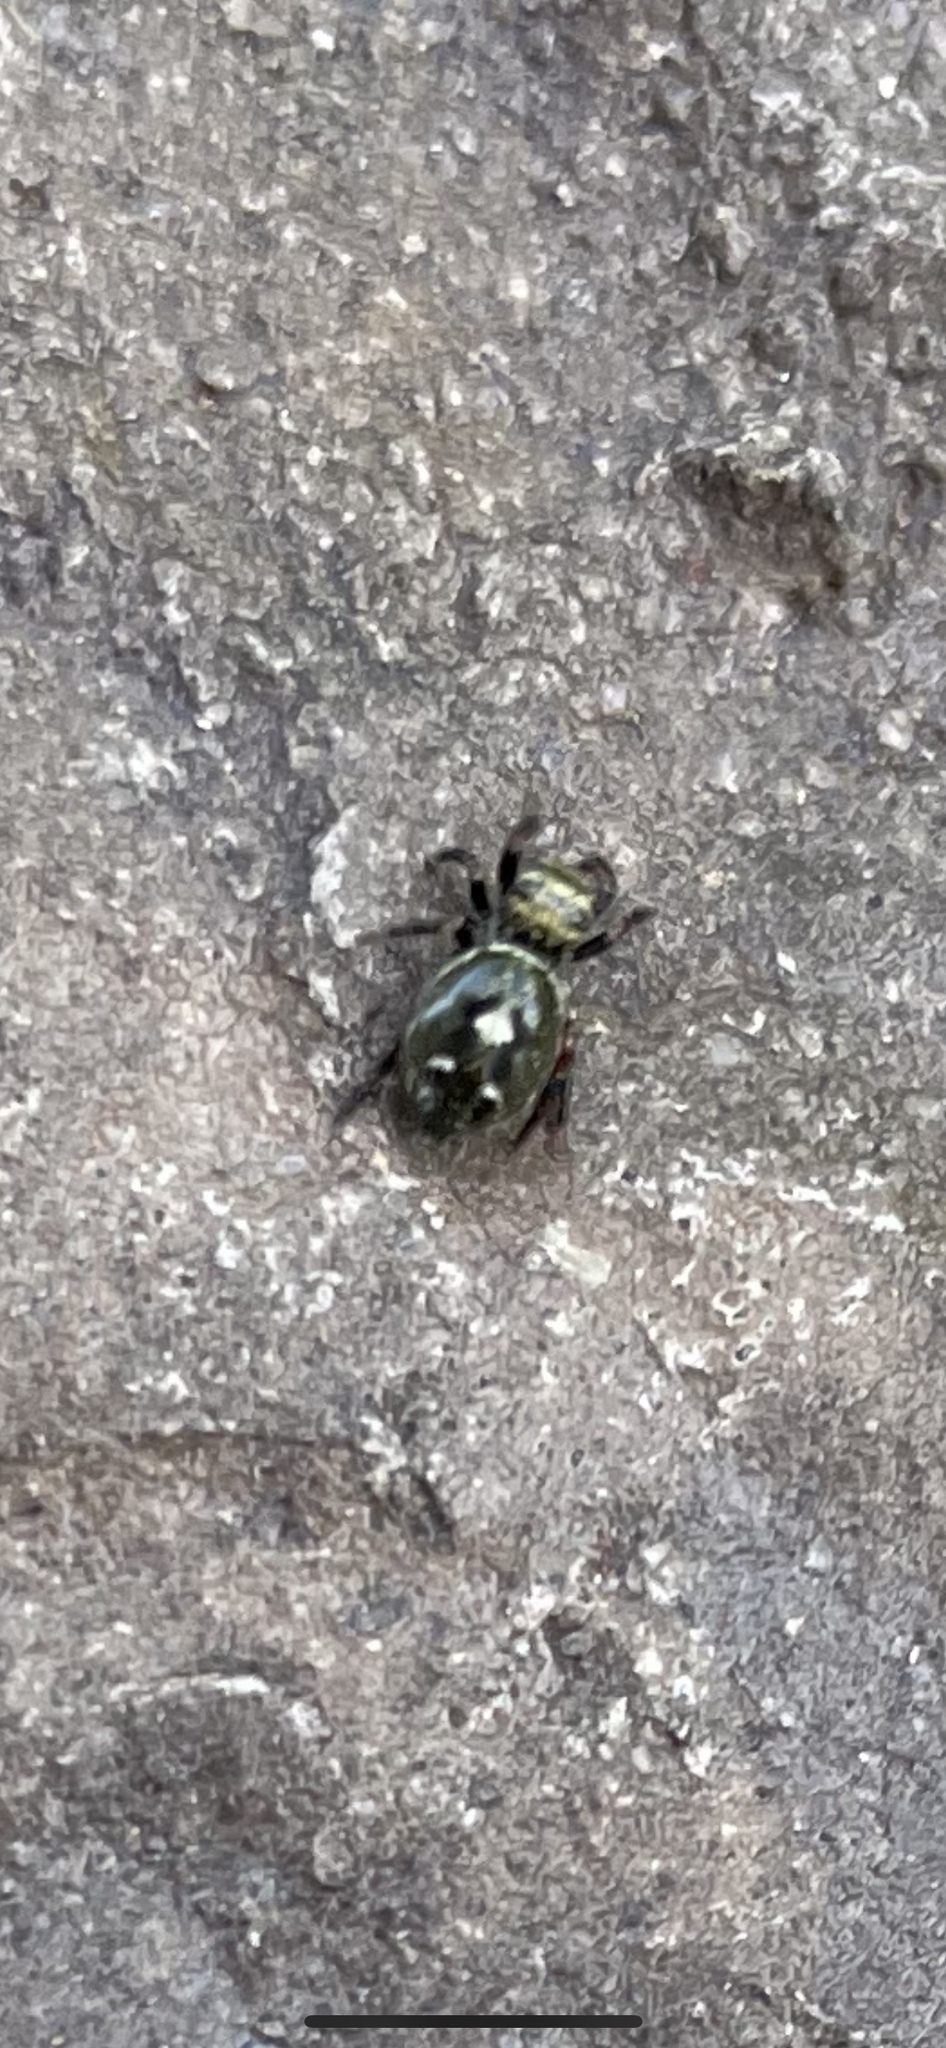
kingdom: Animalia
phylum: Arthropoda
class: Arachnida
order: Araneae
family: Salticidae
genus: Phidippus
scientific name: Phidippus audax
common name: Bold jumper
